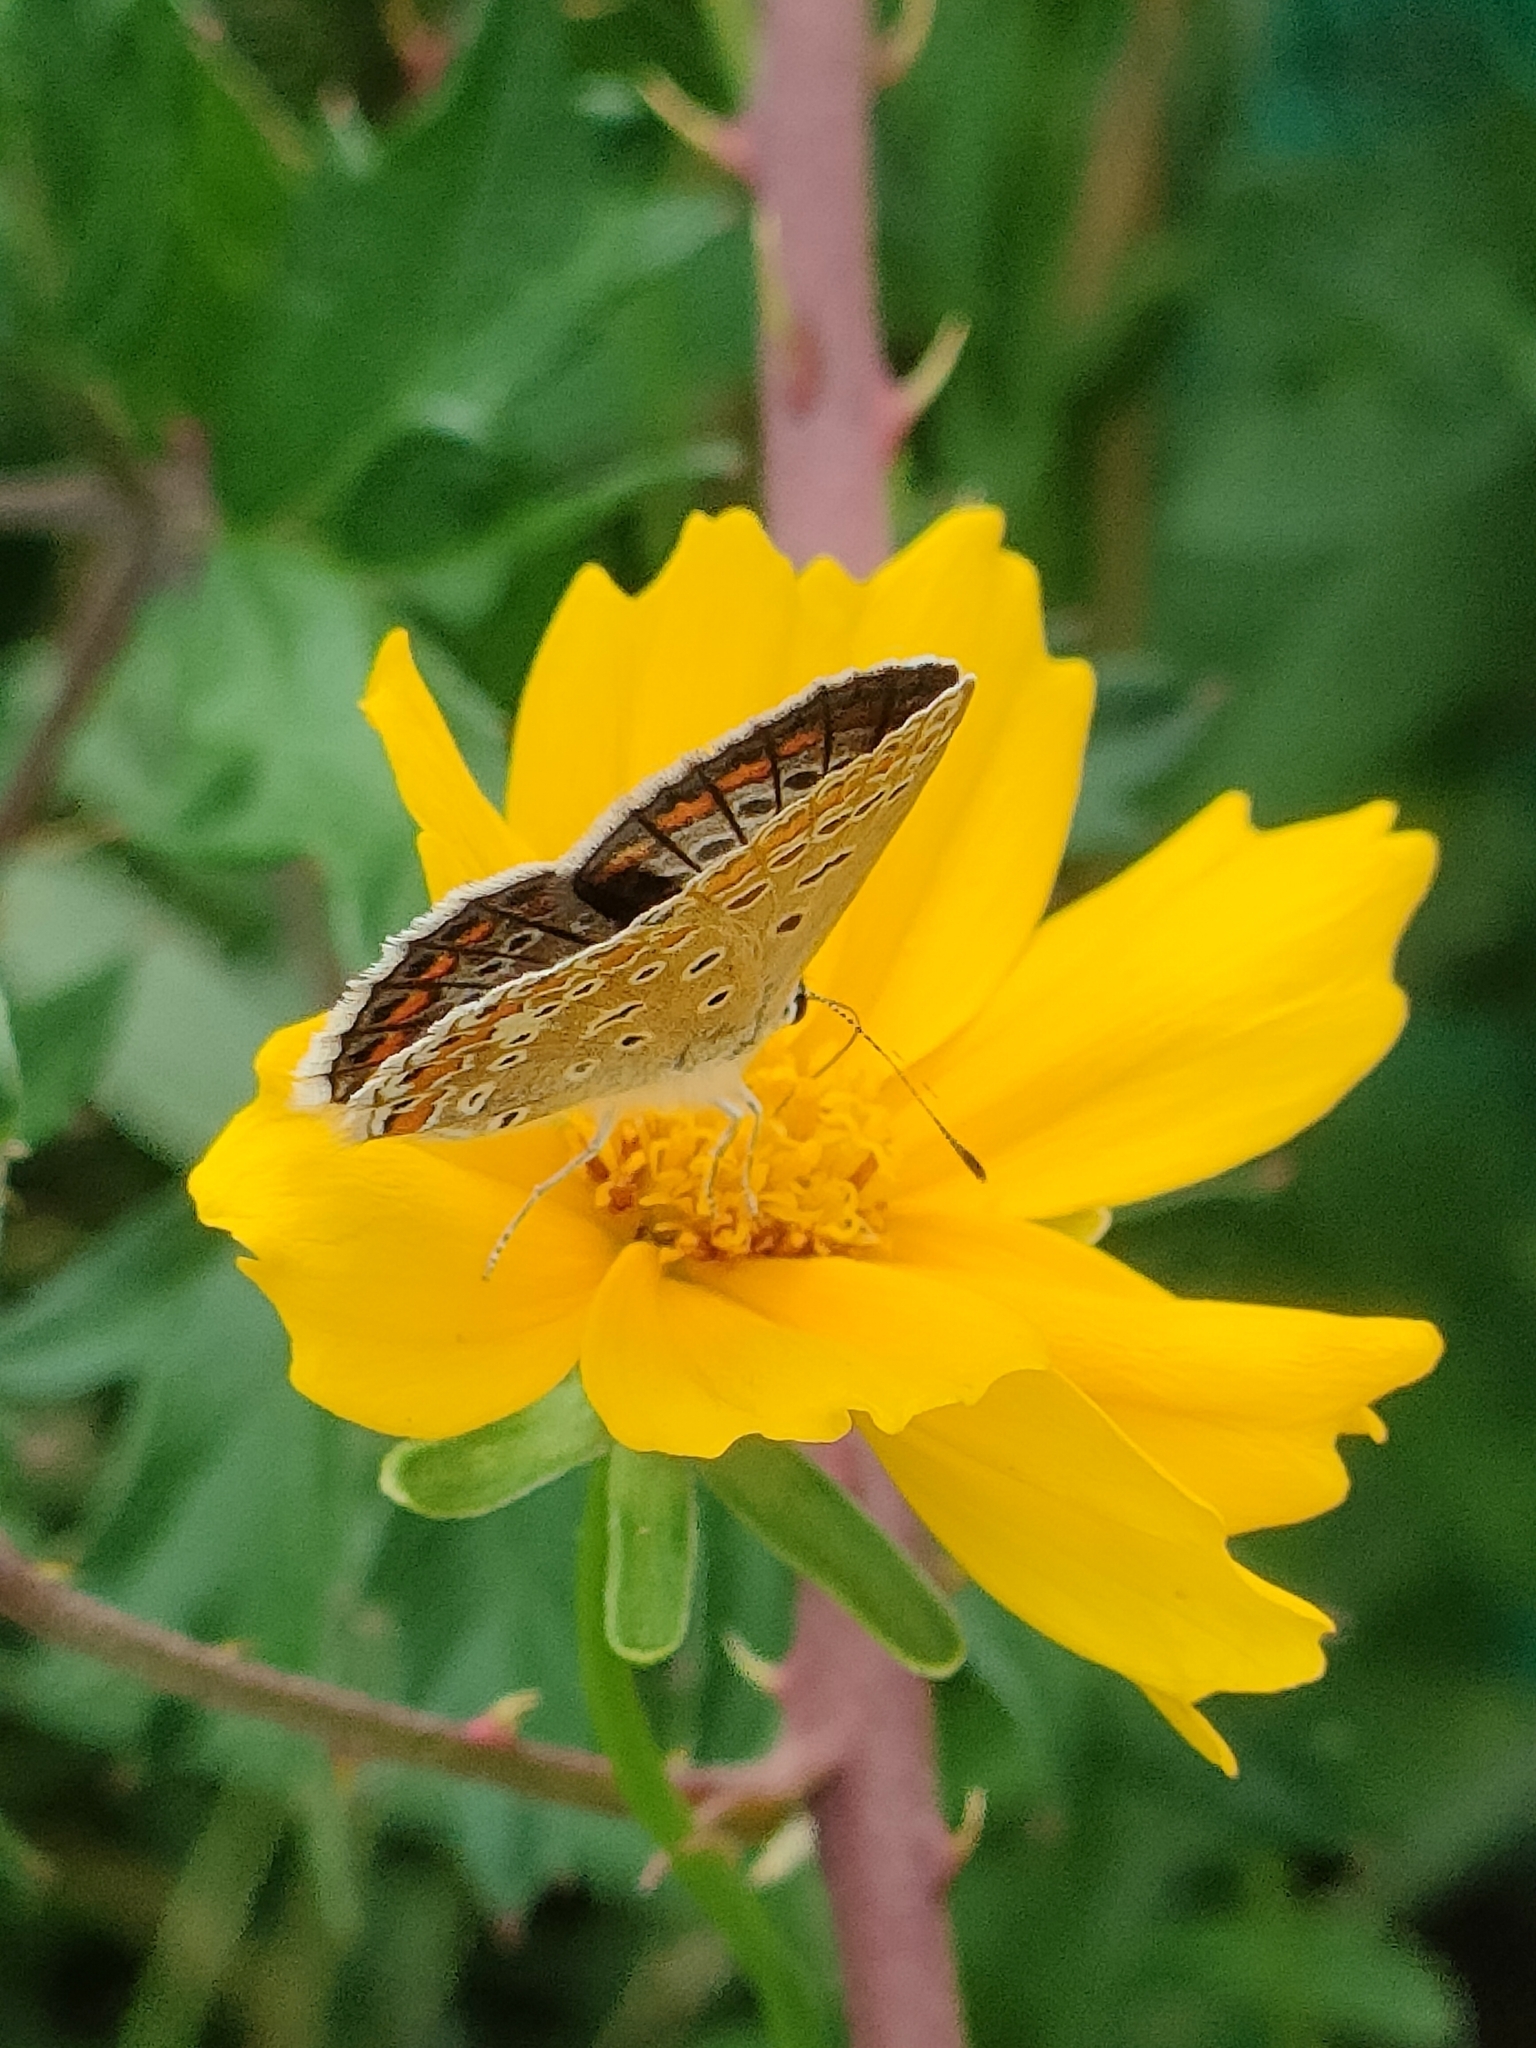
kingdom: Animalia
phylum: Arthropoda
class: Insecta
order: Lepidoptera
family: Lycaenidae
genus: Polyommatus
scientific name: Polyommatus icarus
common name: Common blue
